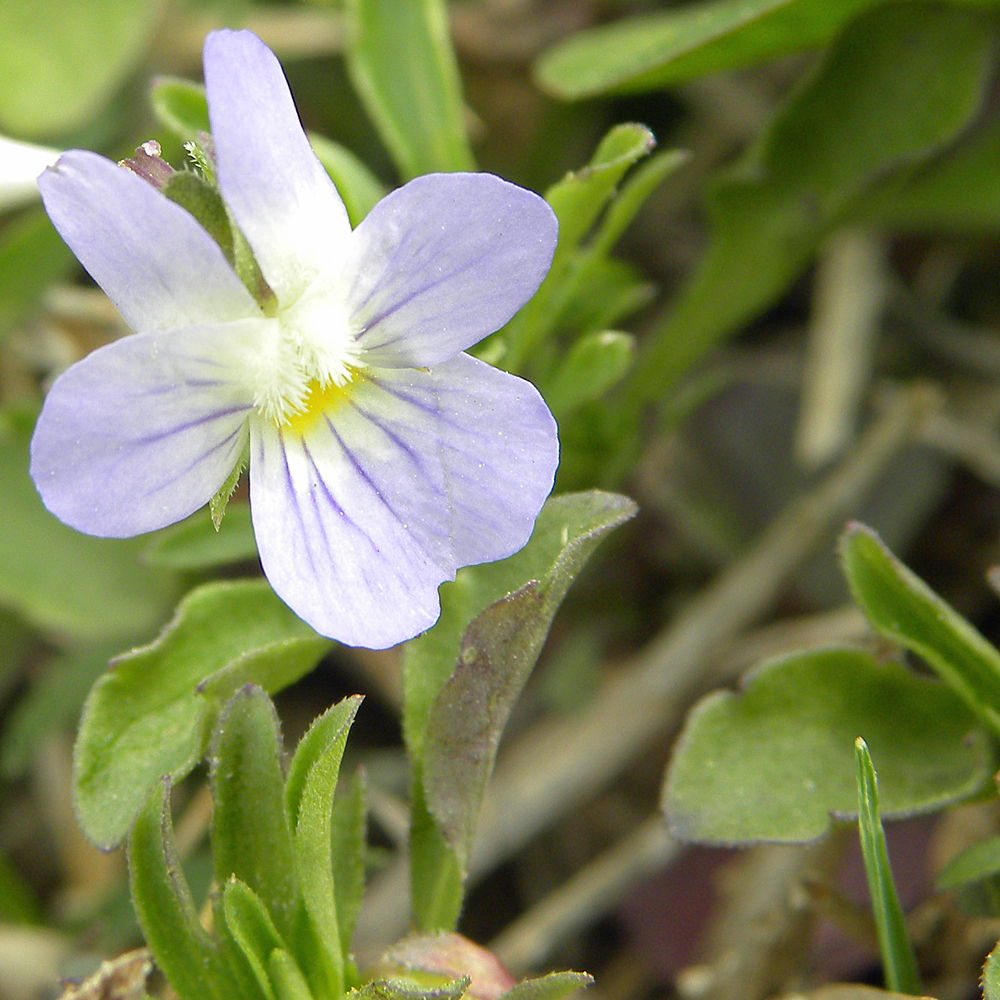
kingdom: Plantae
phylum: Tracheophyta
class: Magnoliopsida
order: Malpighiales
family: Violaceae
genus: Viola
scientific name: Viola rafinesquei
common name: American field pansy
